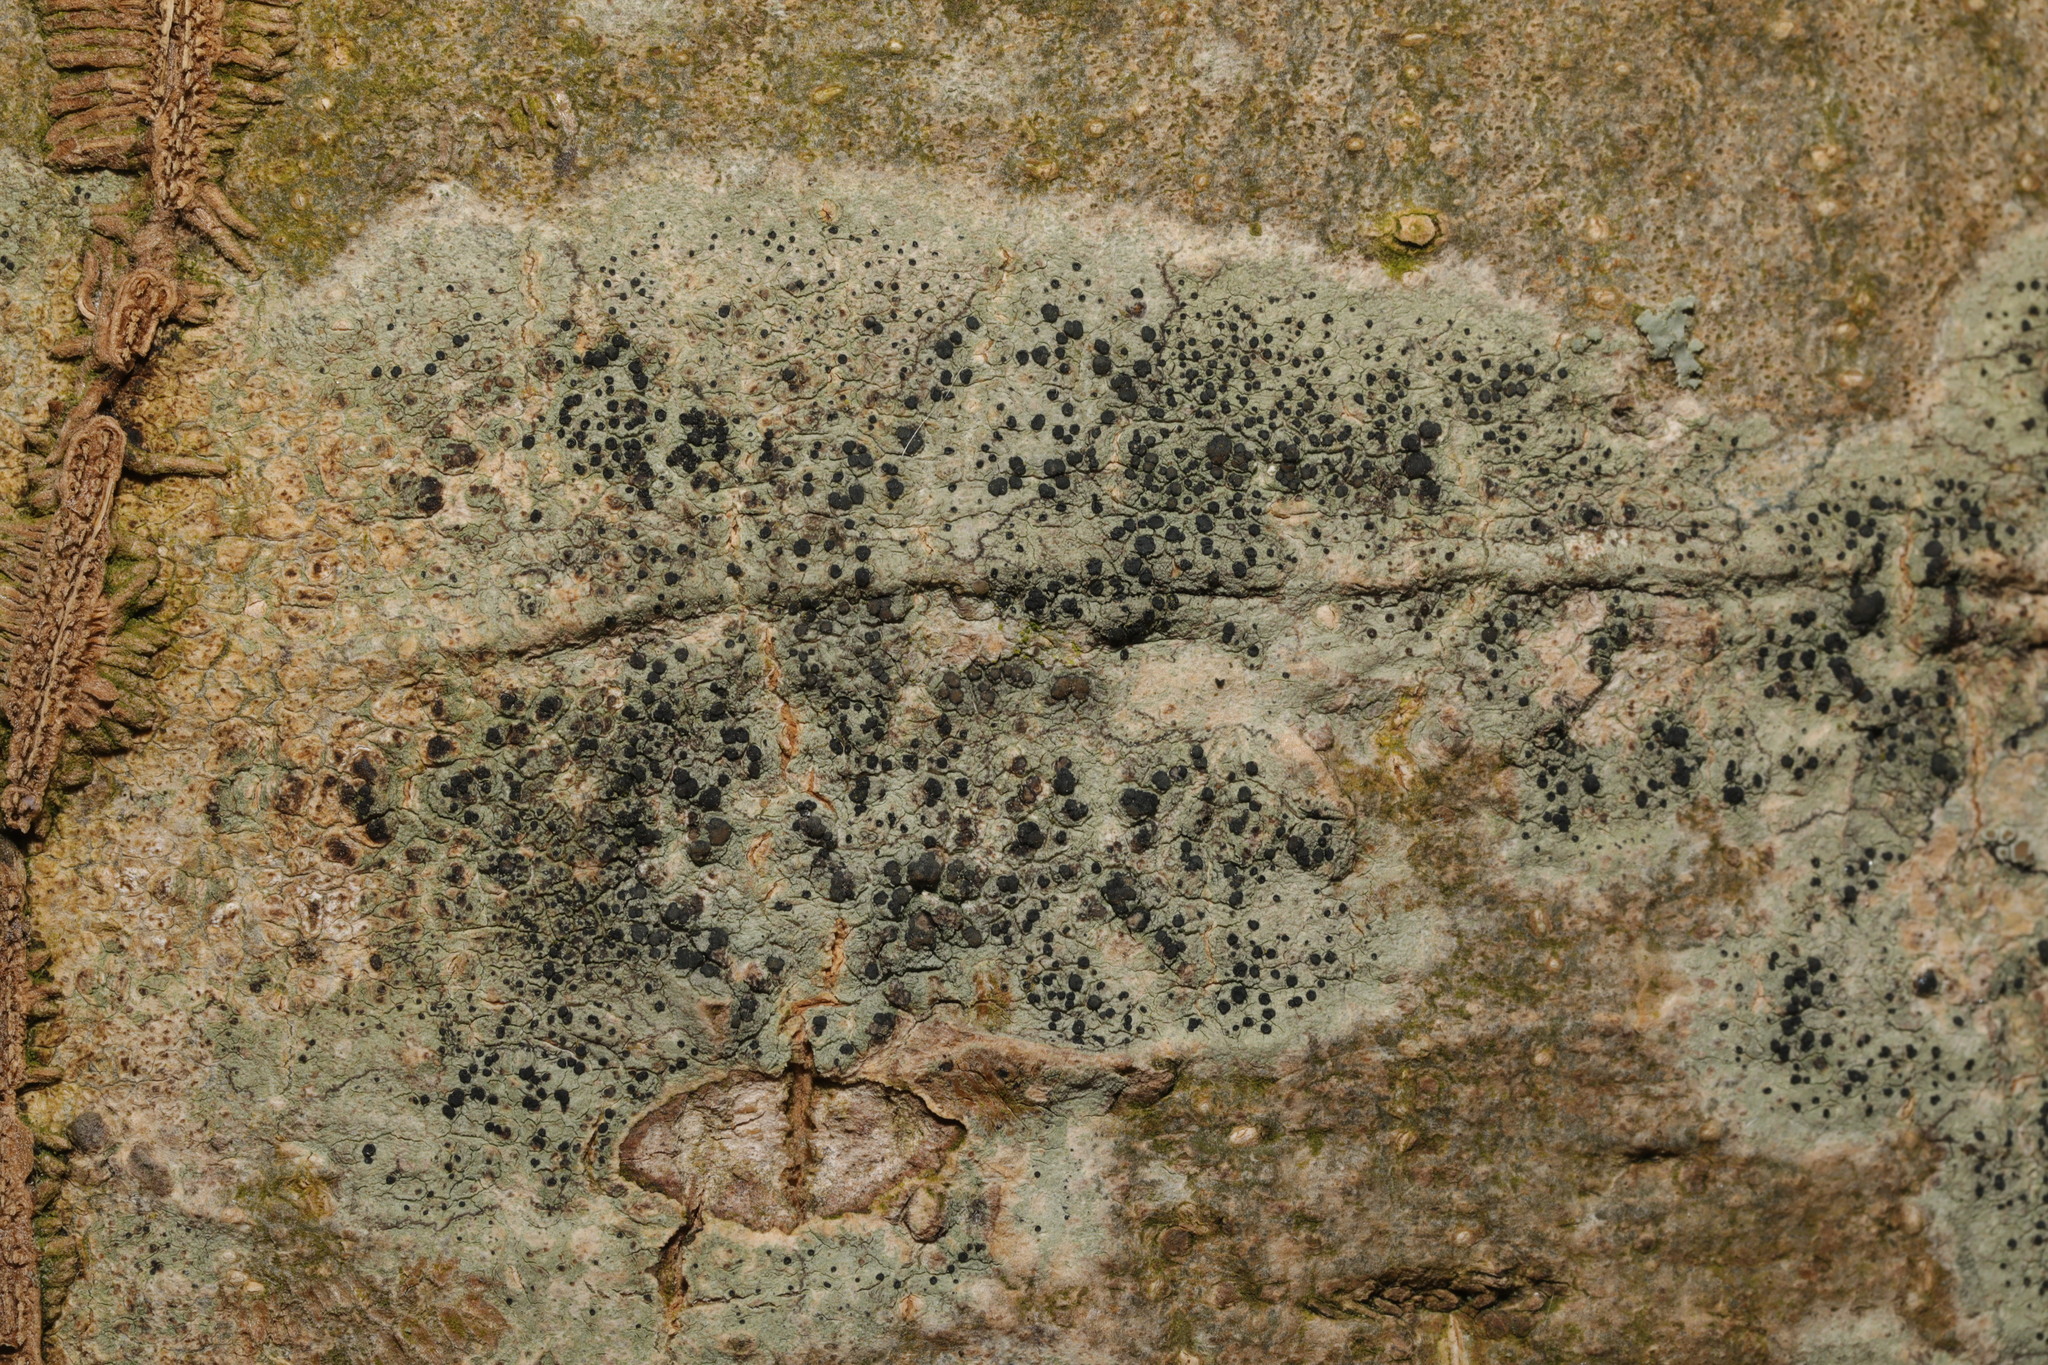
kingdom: Fungi
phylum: Ascomycota
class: Lecanoromycetes
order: Lecanorales
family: Lecanoraceae
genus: Lecidella
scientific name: Lecidella elaeochroma
